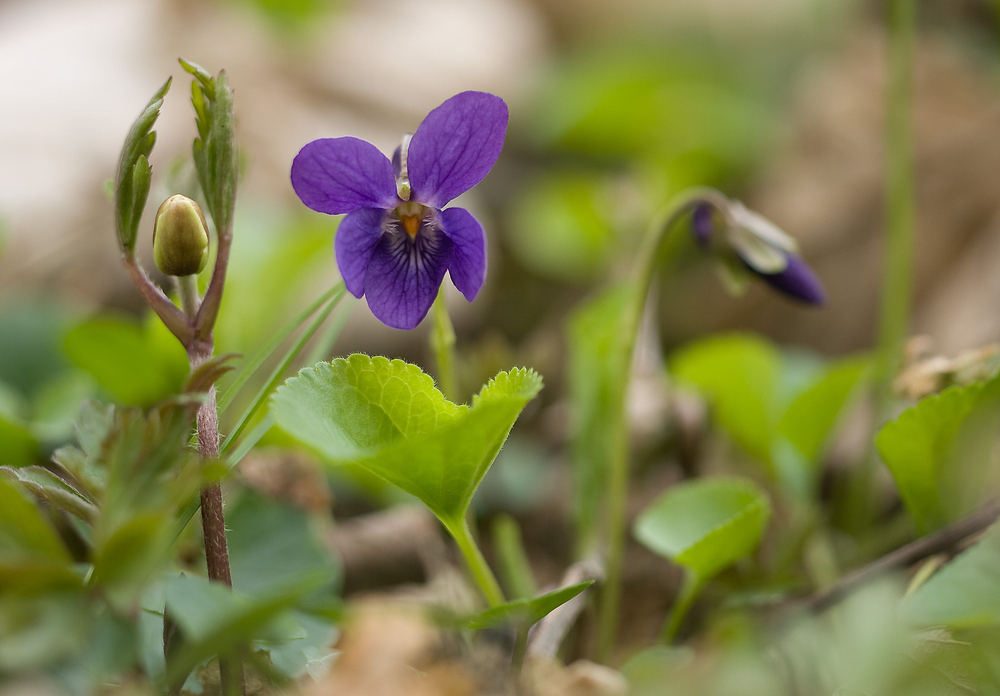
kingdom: Plantae
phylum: Tracheophyta
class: Magnoliopsida
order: Malpighiales
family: Violaceae
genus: Viola
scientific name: Viola odorata
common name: Sweet violet
